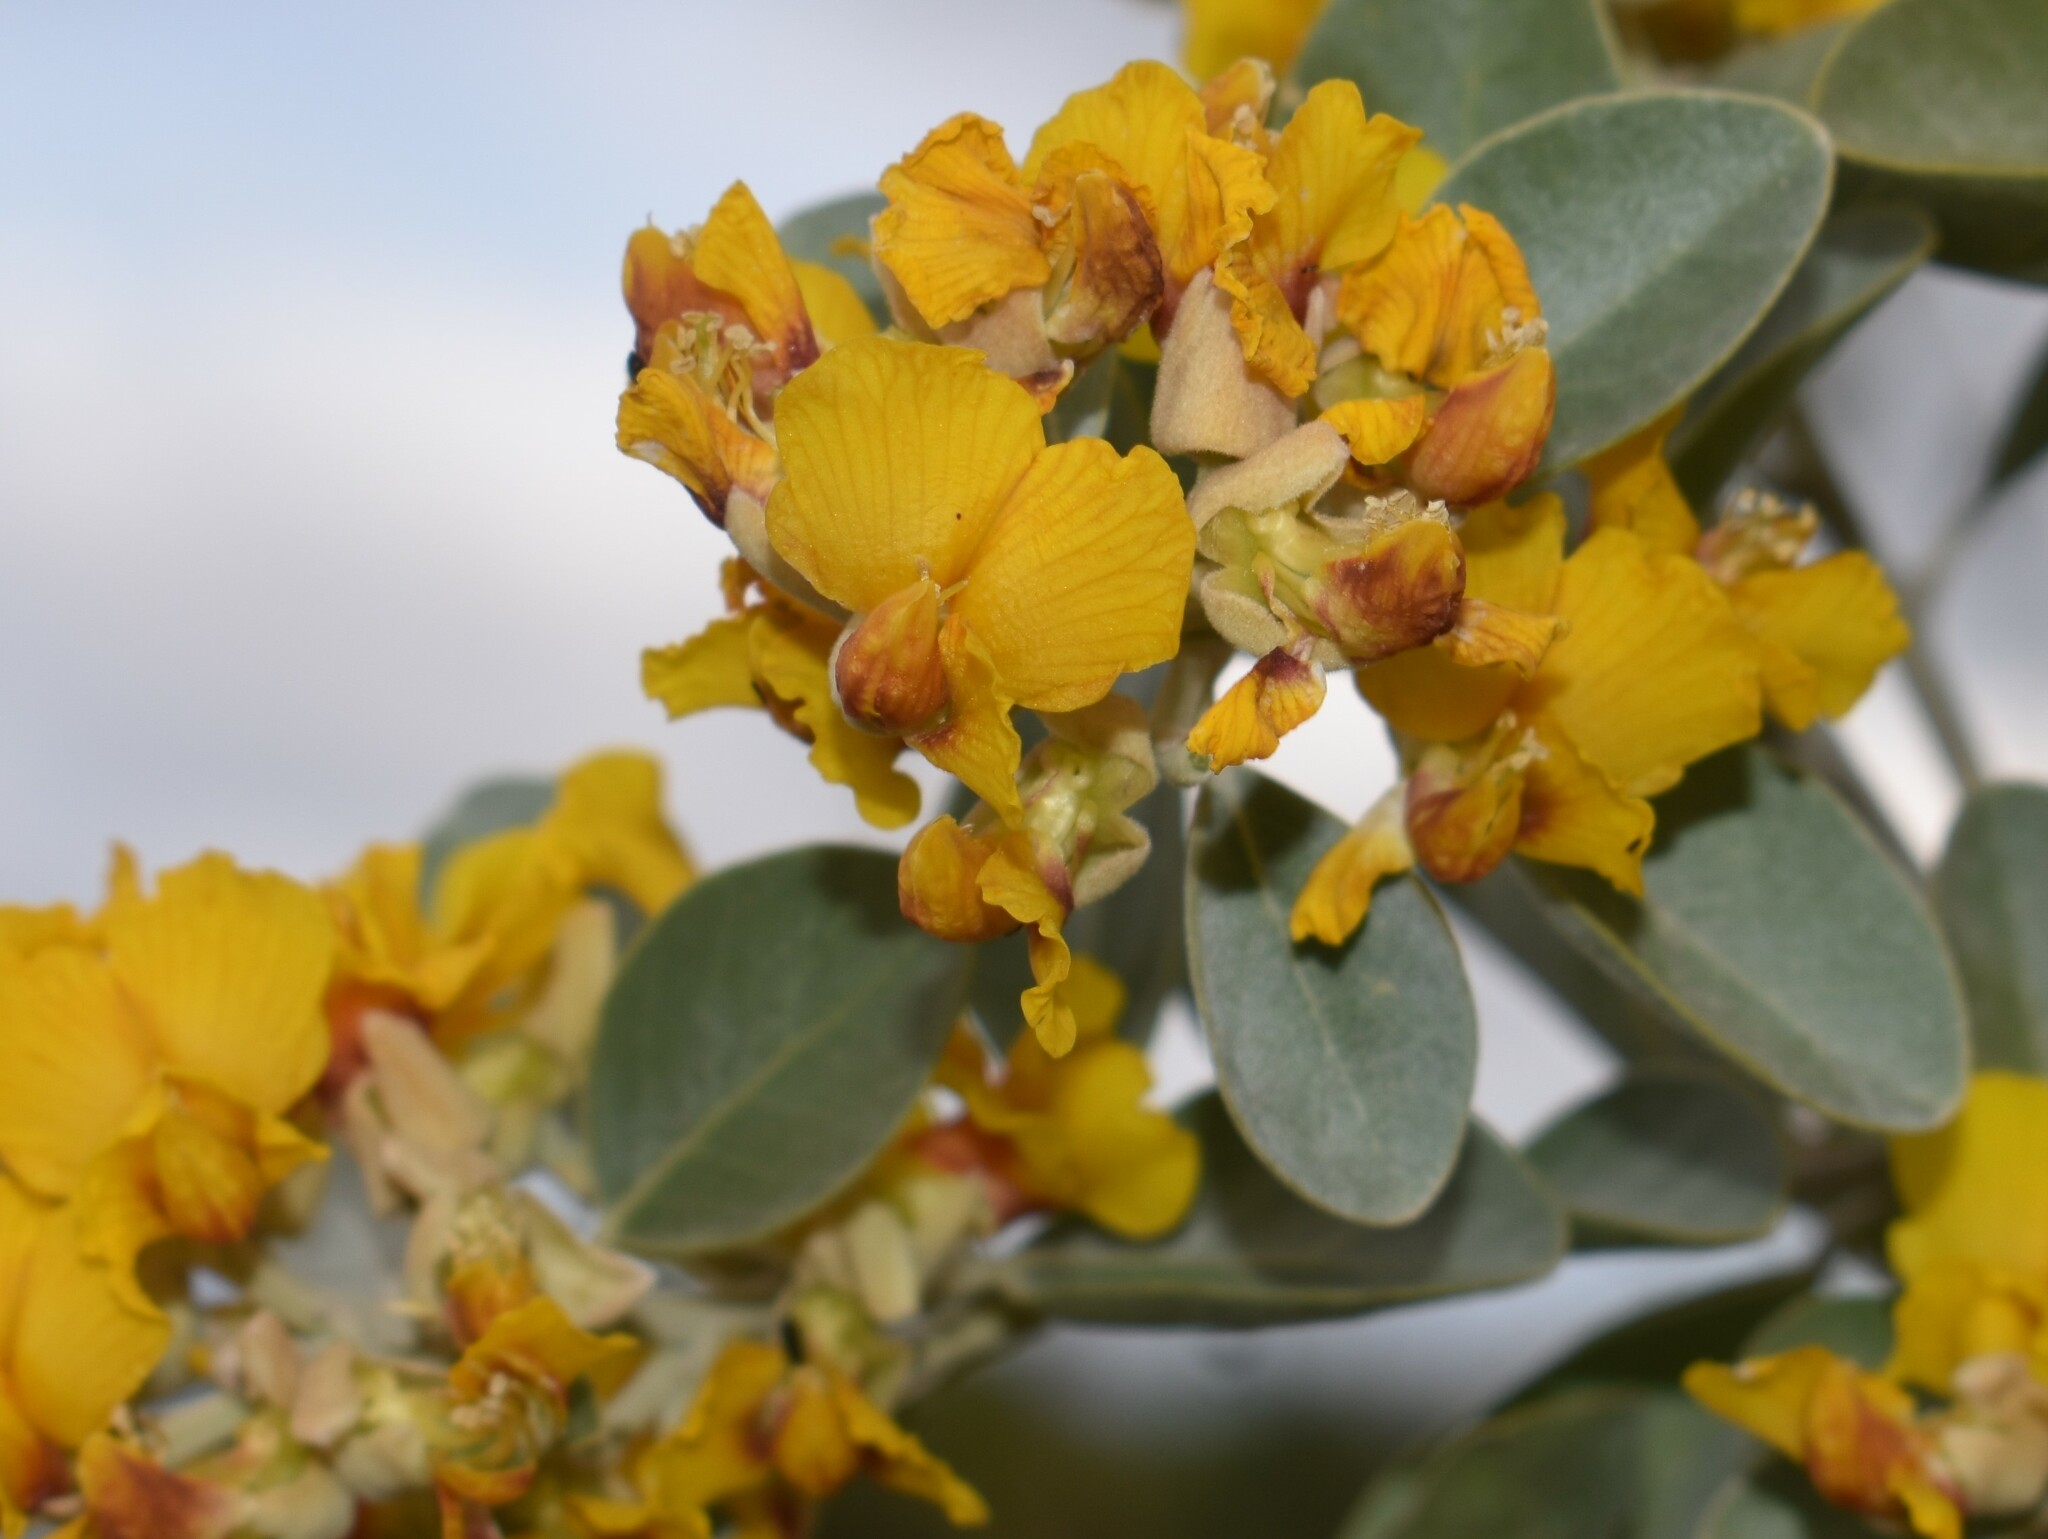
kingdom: Plantae
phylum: Tracheophyta
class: Magnoliopsida
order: Fabales
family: Fabaceae
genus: Stirtonanthus
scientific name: Stirtonanthus taylorianus
